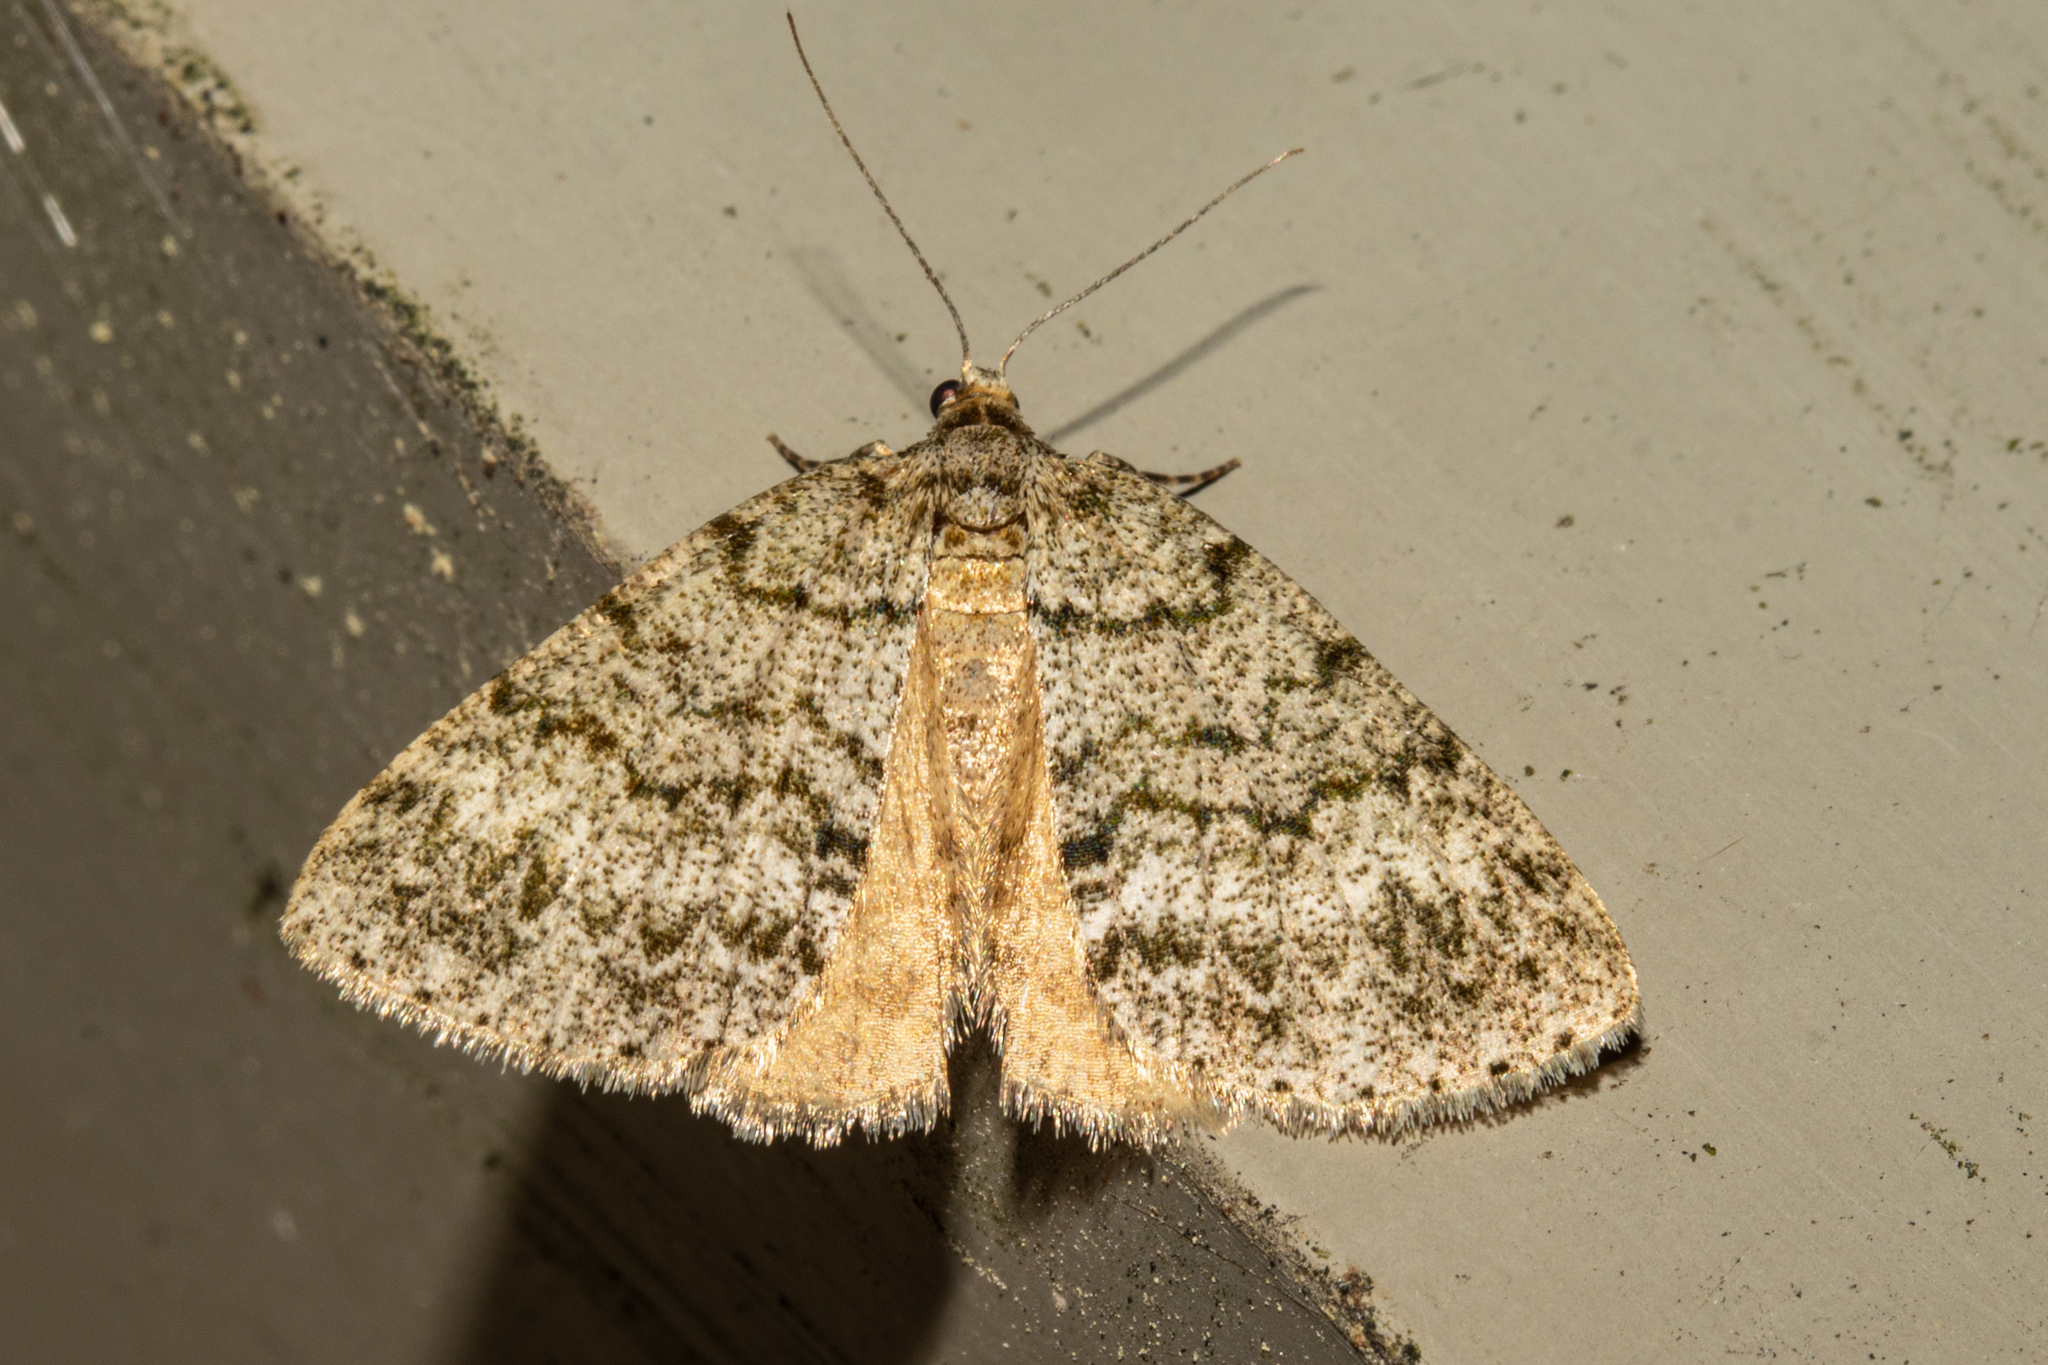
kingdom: Animalia
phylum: Arthropoda
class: Insecta
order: Lepidoptera
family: Geometridae
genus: Pseudocoremia
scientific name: Pseudocoremia indistincta
